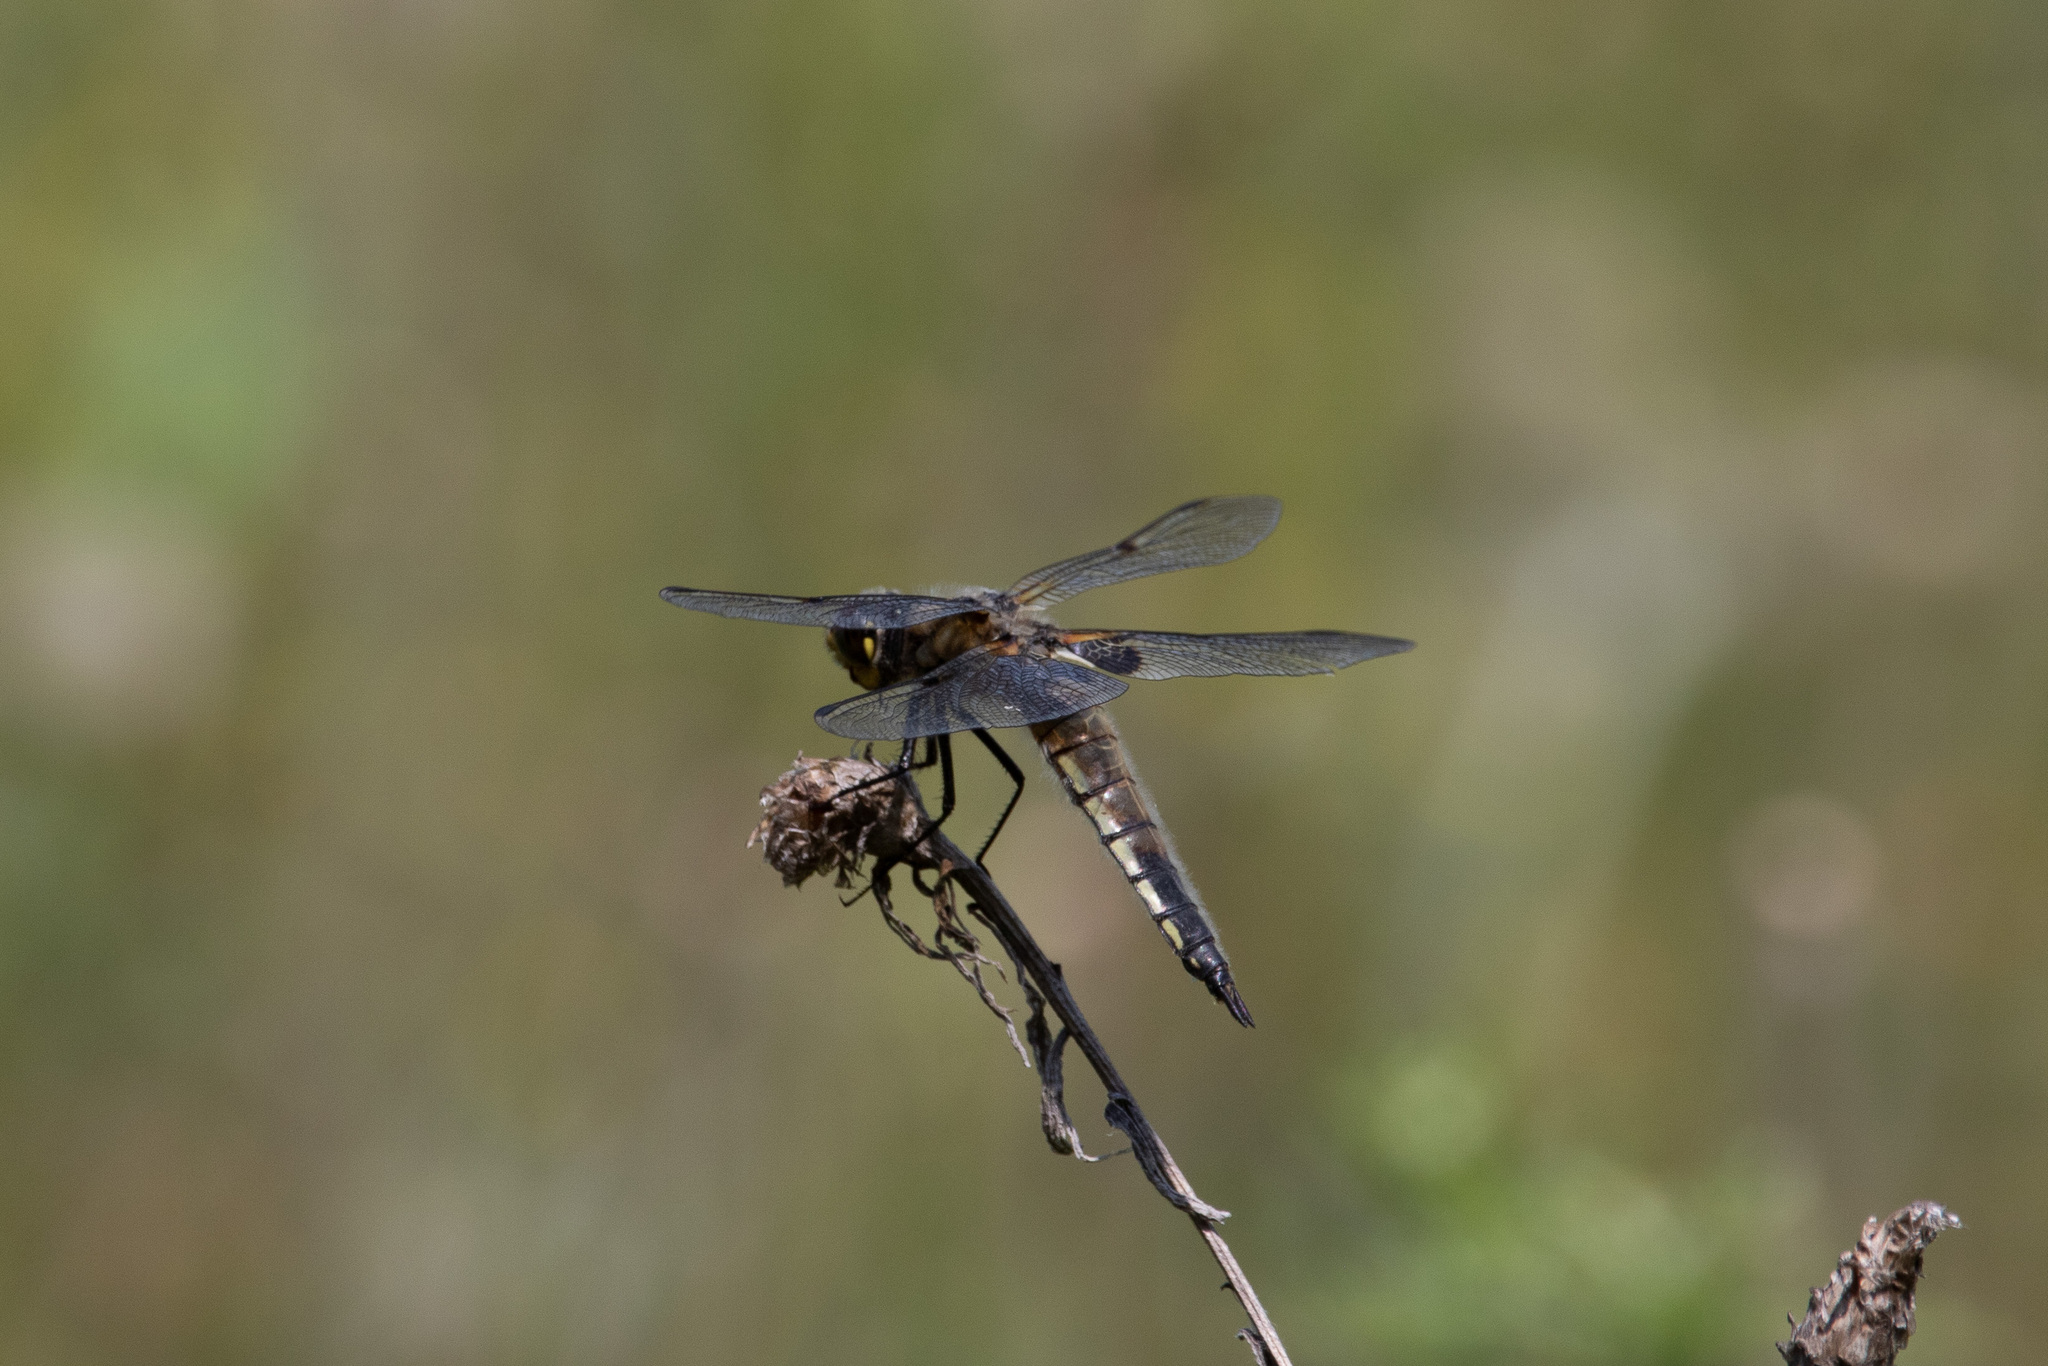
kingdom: Animalia
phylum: Arthropoda
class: Insecta
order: Odonata
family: Libellulidae
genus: Libellula
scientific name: Libellula quadrimaculata
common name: Four-spotted chaser
